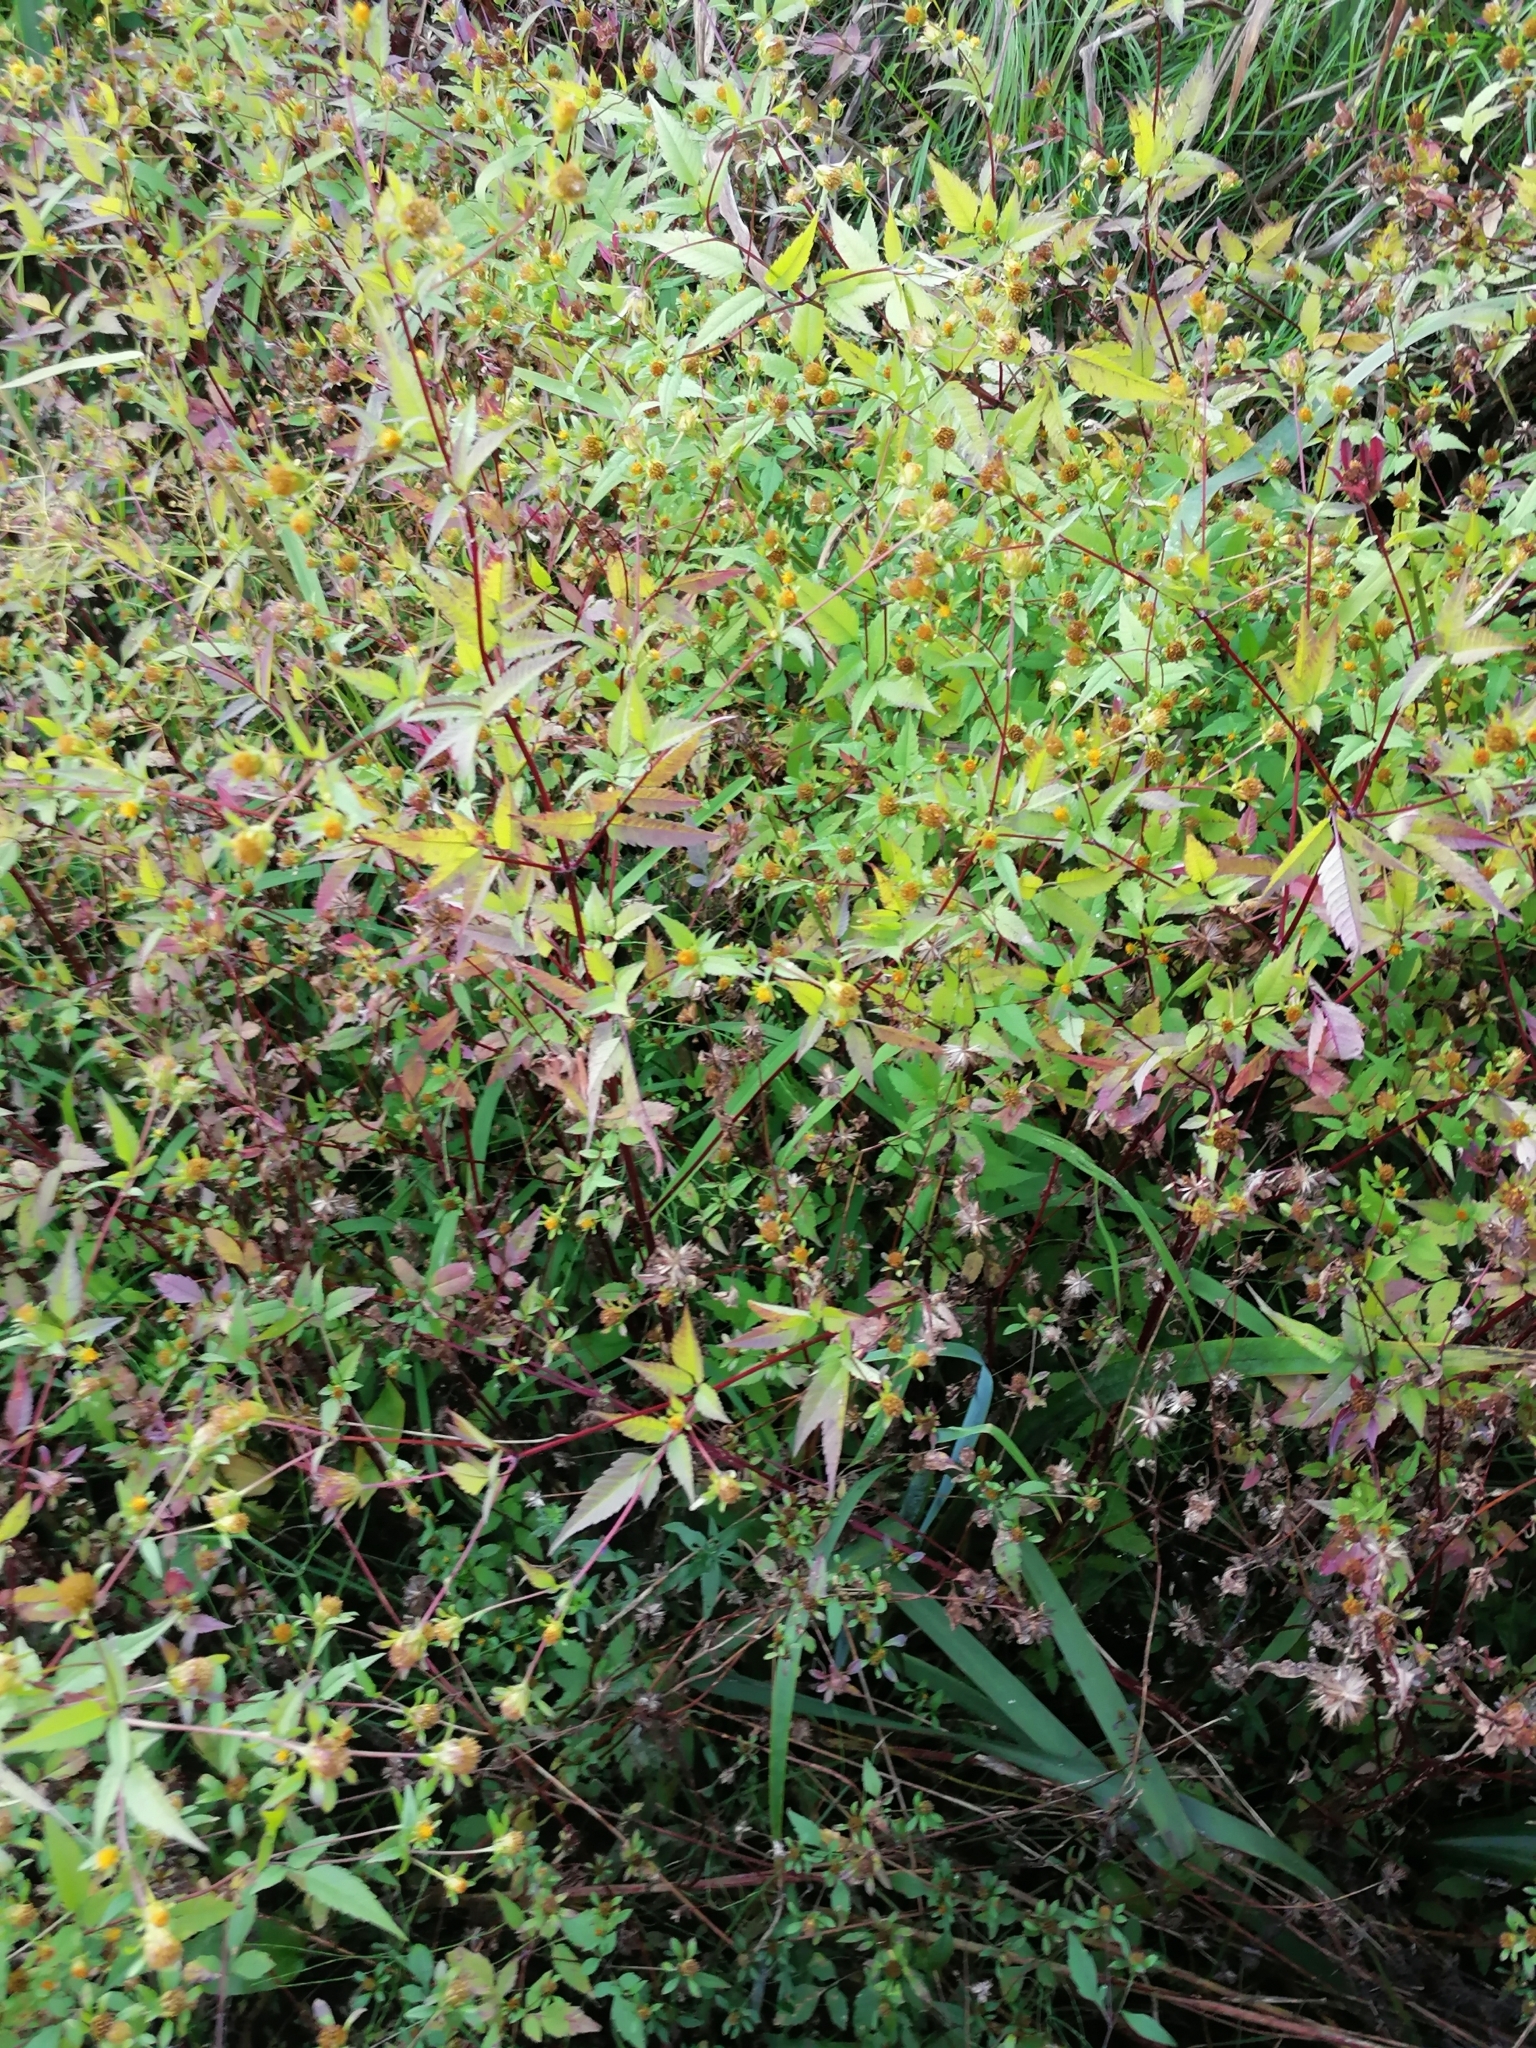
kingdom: Plantae
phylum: Tracheophyta
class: Magnoliopsida
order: Asterales
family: Asteraceae
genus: Bidens
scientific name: Bidens frondosa
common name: Beggarticks
